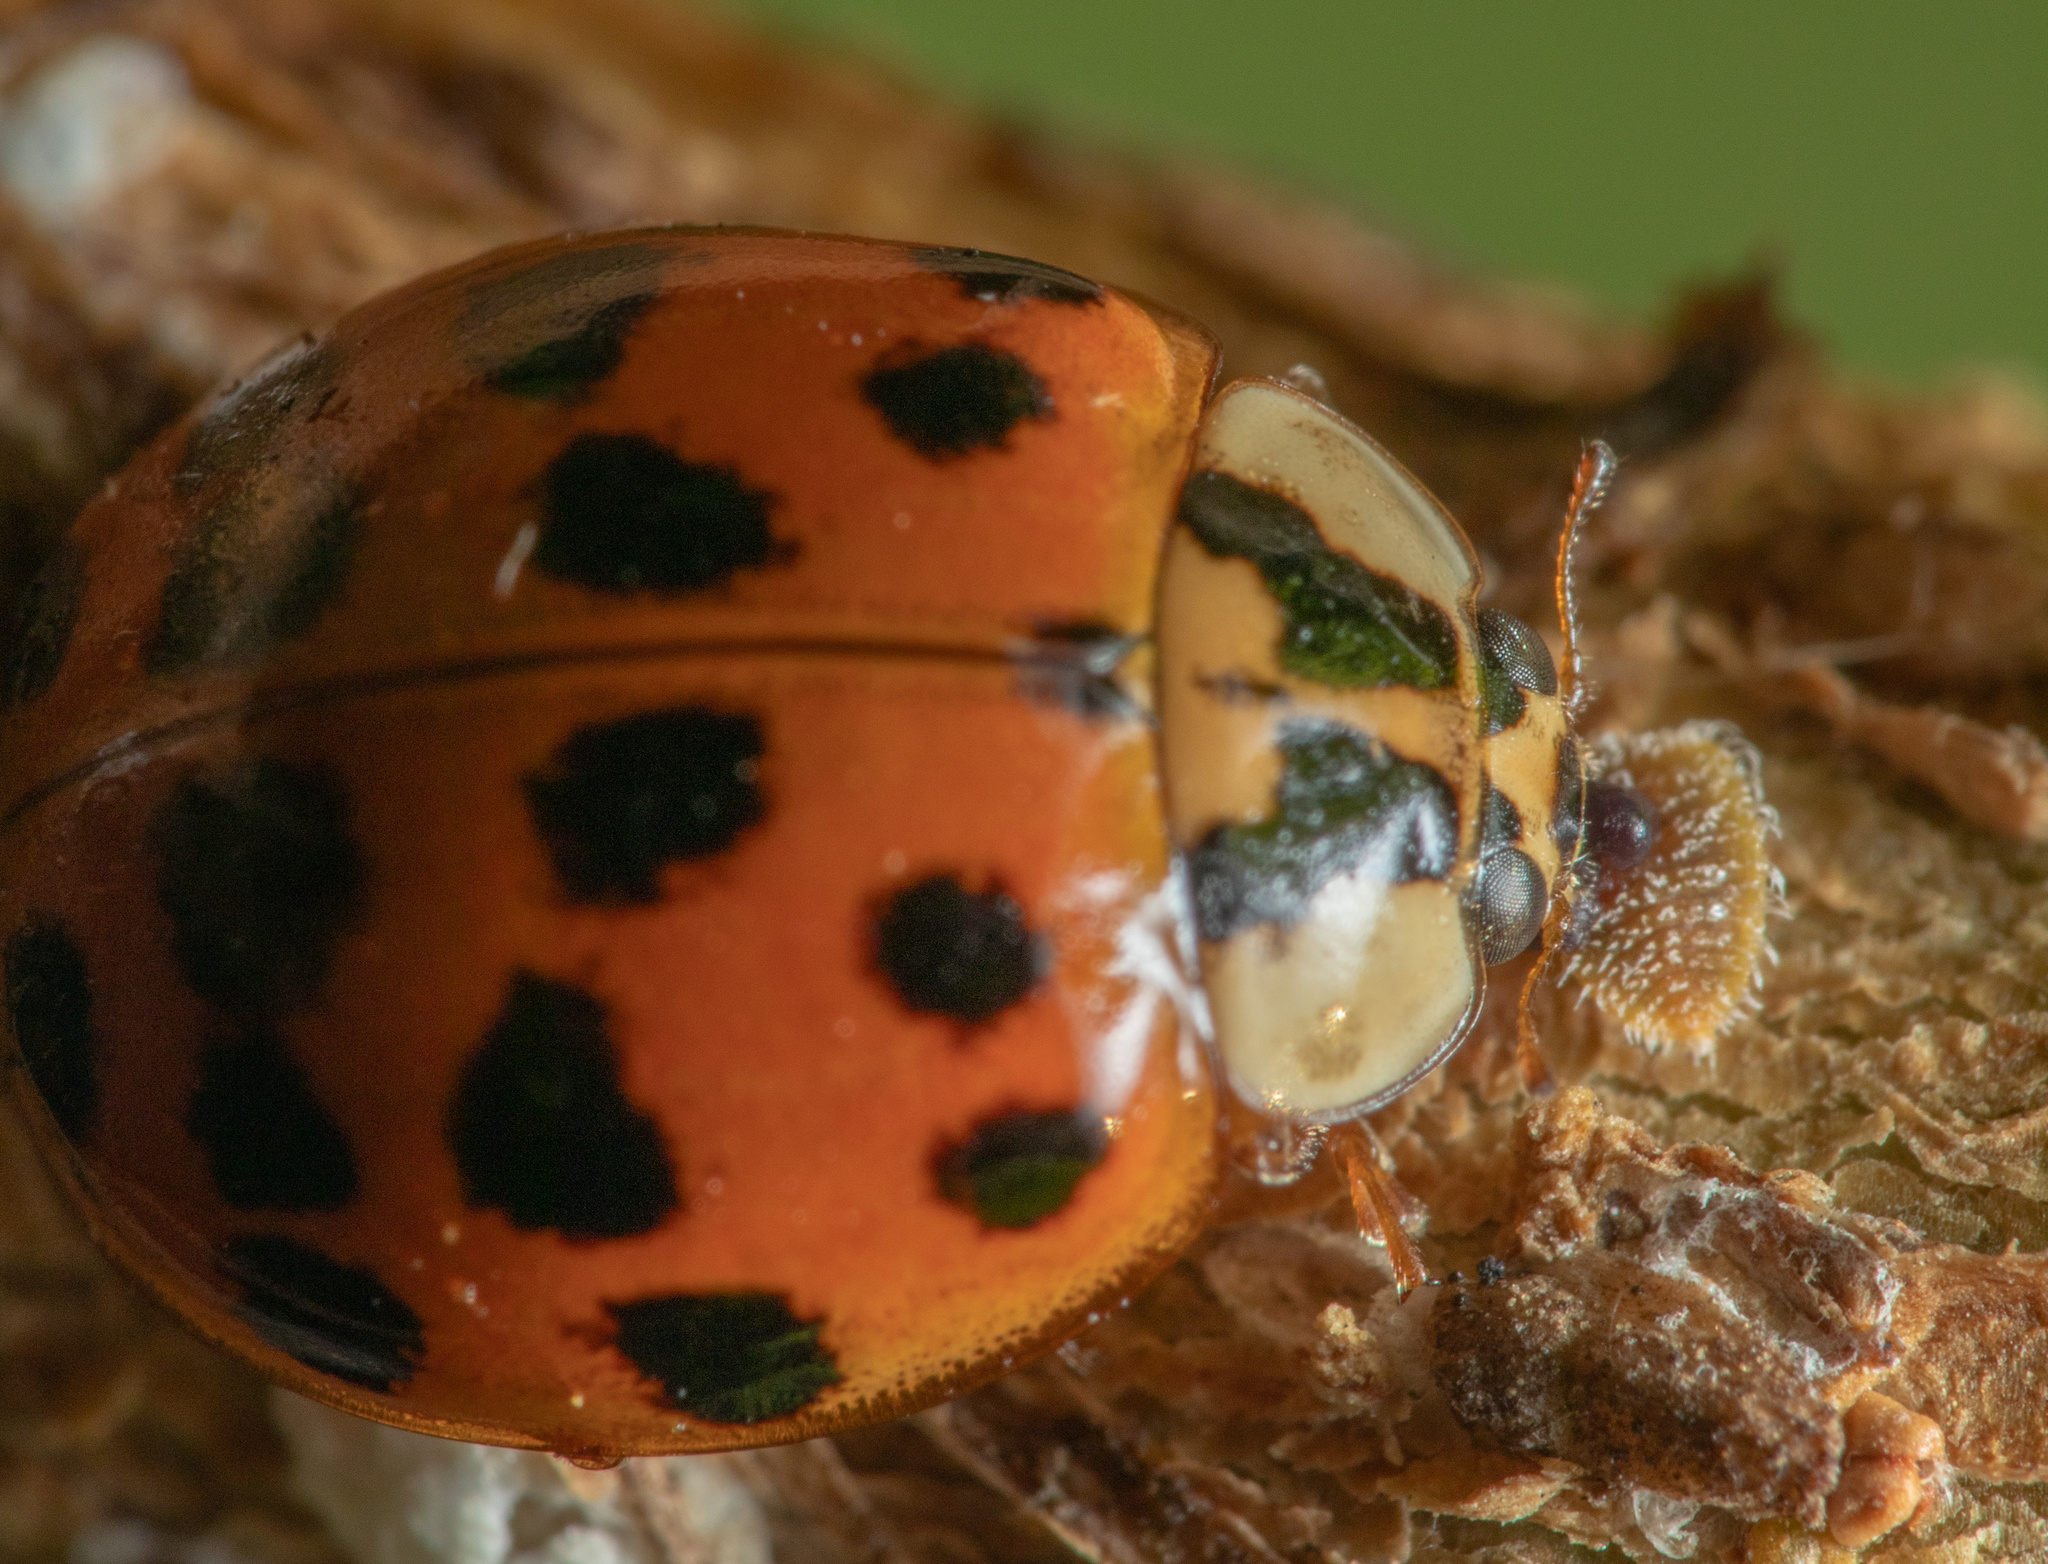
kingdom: Animalia
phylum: Arthropoda
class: Insecta
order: Coleoptera
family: Coccinellidae
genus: Harmonia
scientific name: Harmonia axyridis
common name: Harlequin ladybird
